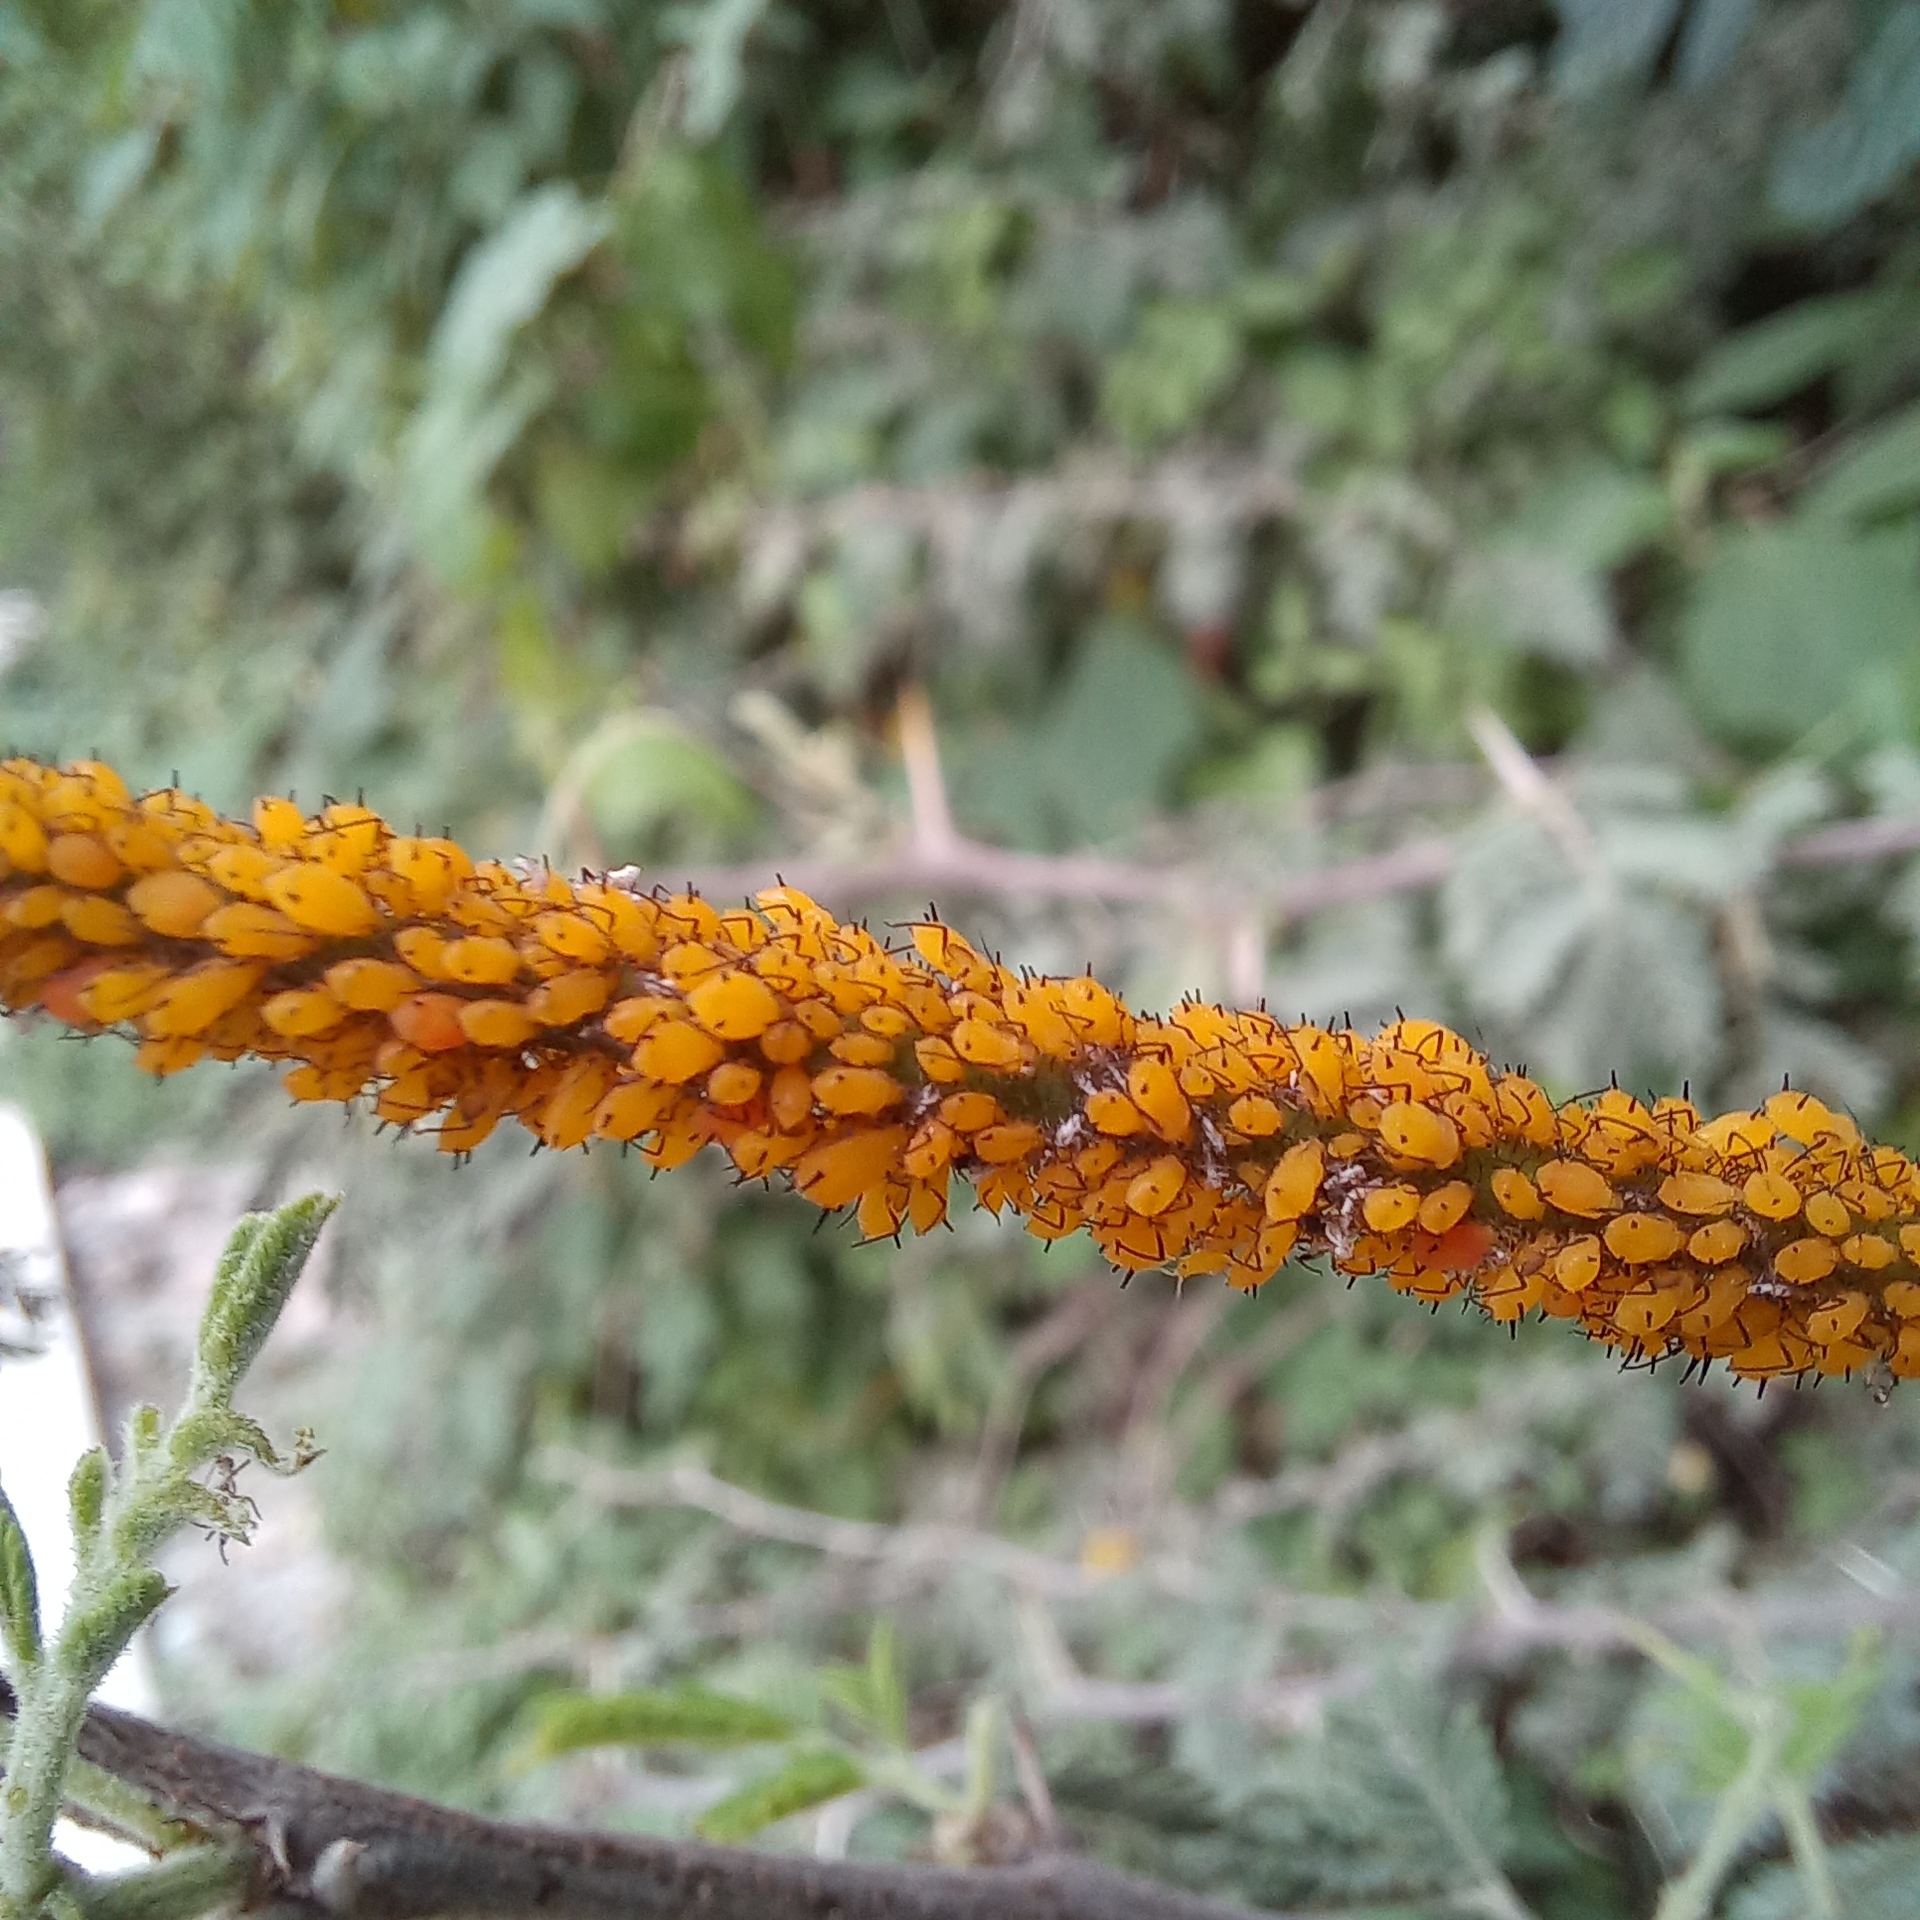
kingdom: Animalia
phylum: Arthropoda
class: Insecta
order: Hemiptera
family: Aphididae
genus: Aphis
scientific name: Aphis nerii
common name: Oleander aphid
